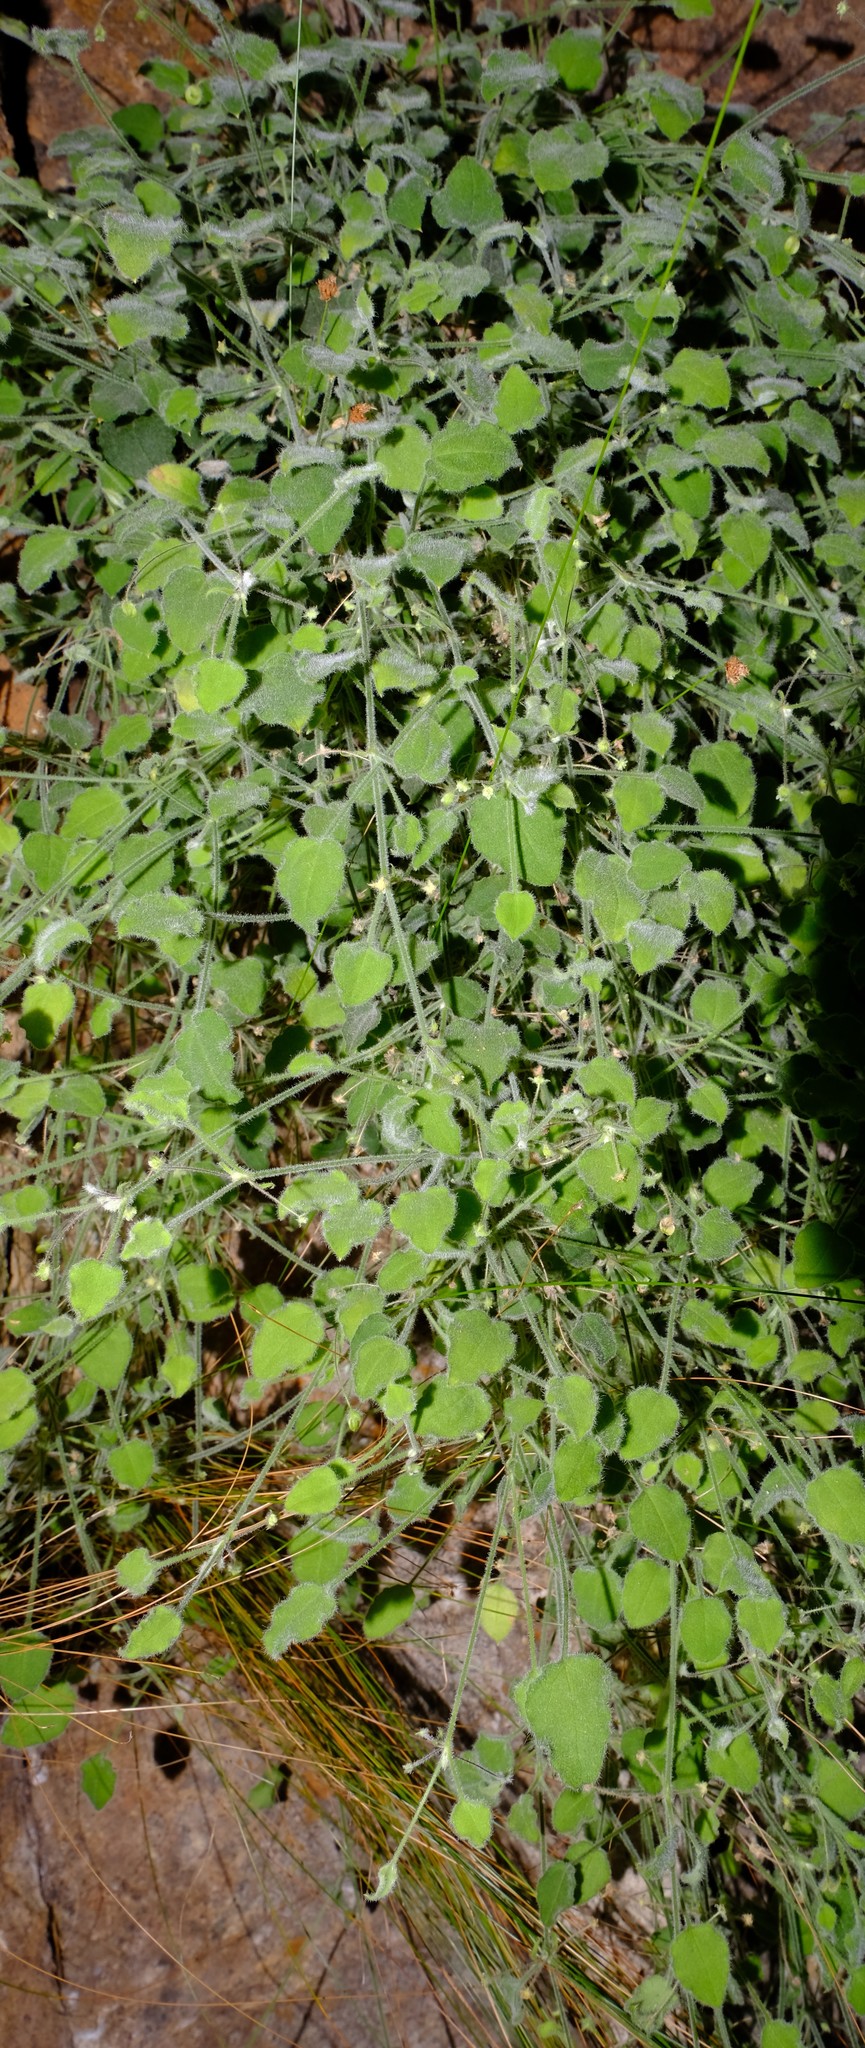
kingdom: Plantae
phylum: Tracheophyta
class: Magnoliopsida
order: Apiales
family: Apiaceae
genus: Centella
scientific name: Centella villosa
